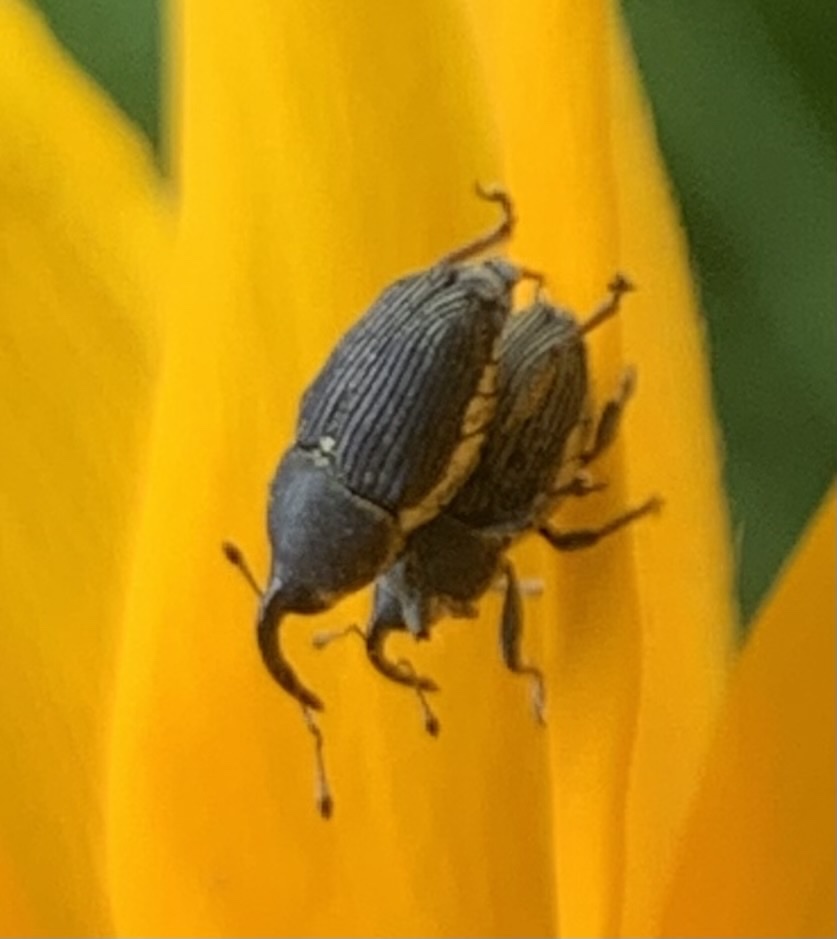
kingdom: Animalia
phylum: Arthropoda
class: Insecta
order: Coleoptera
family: Curculionidae
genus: Odontocorynus
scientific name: Odontocorynus salebrosus
